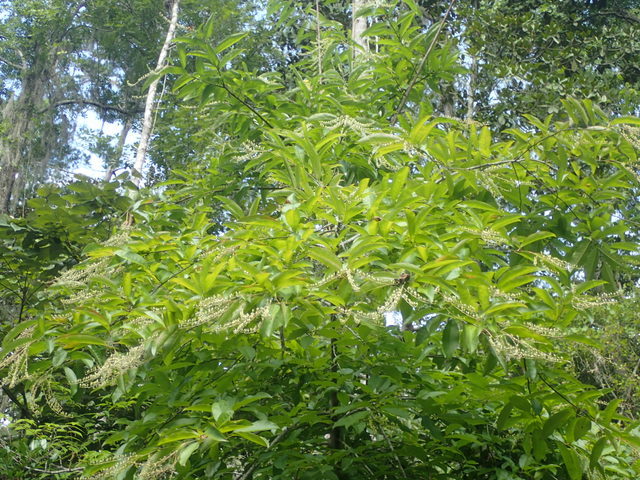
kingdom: Plantae
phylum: Tracheophyta
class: Magnoliopsida
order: Ericales
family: Ericaceae
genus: Oxydendrum
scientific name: Oxydendrum arboreum
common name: Sourwood
